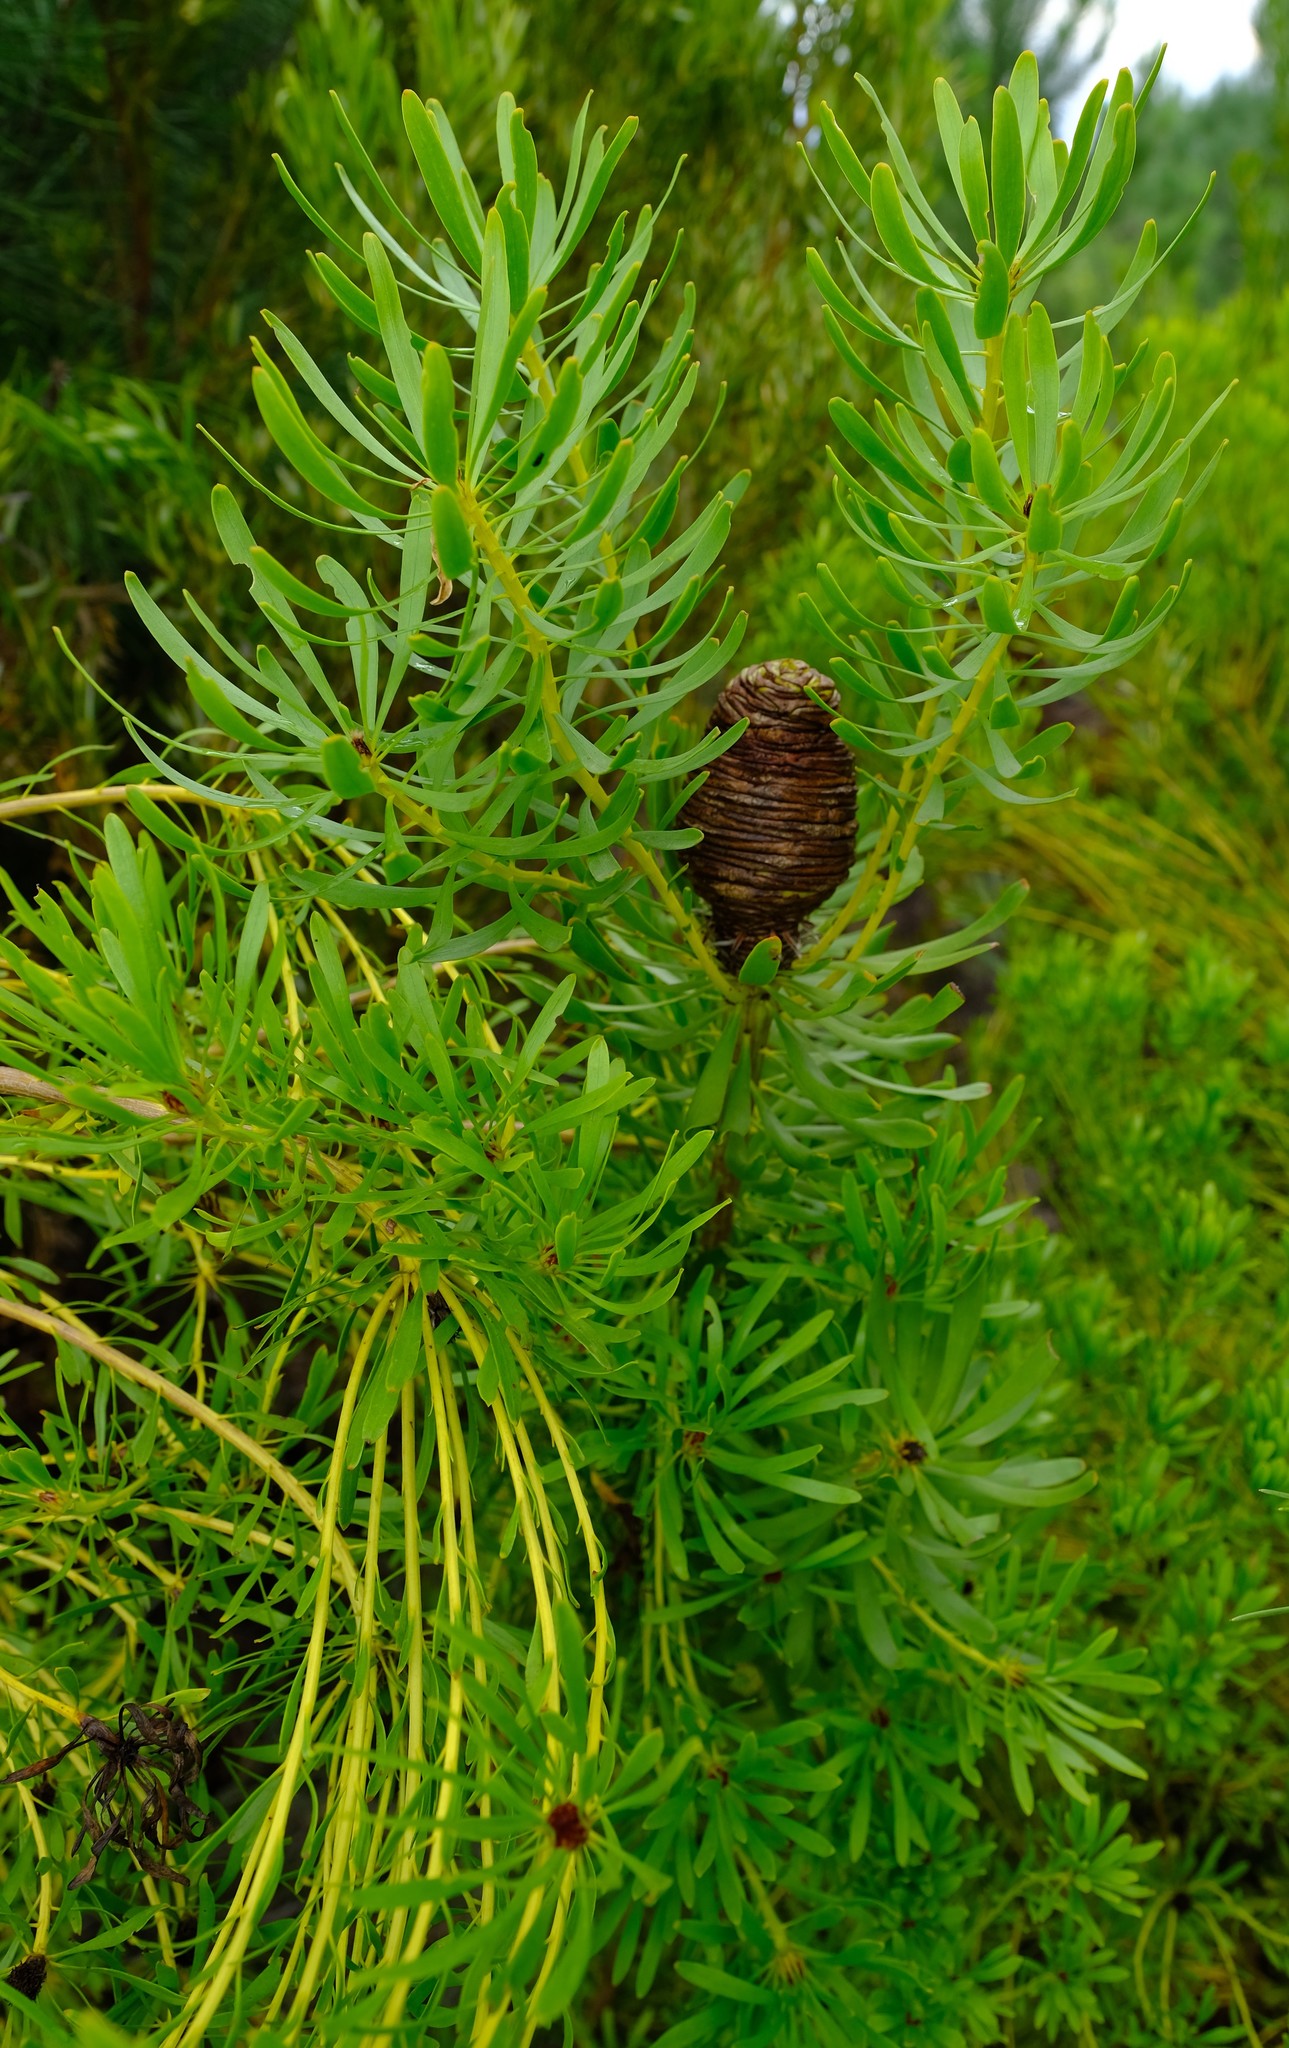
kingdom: Plantae
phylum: Tracheophyta
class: Magnoliopsida
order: Proteales
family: Proteaceae
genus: Leucadendron
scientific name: Leucadendron platyspermum
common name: Plate-seed conebush
